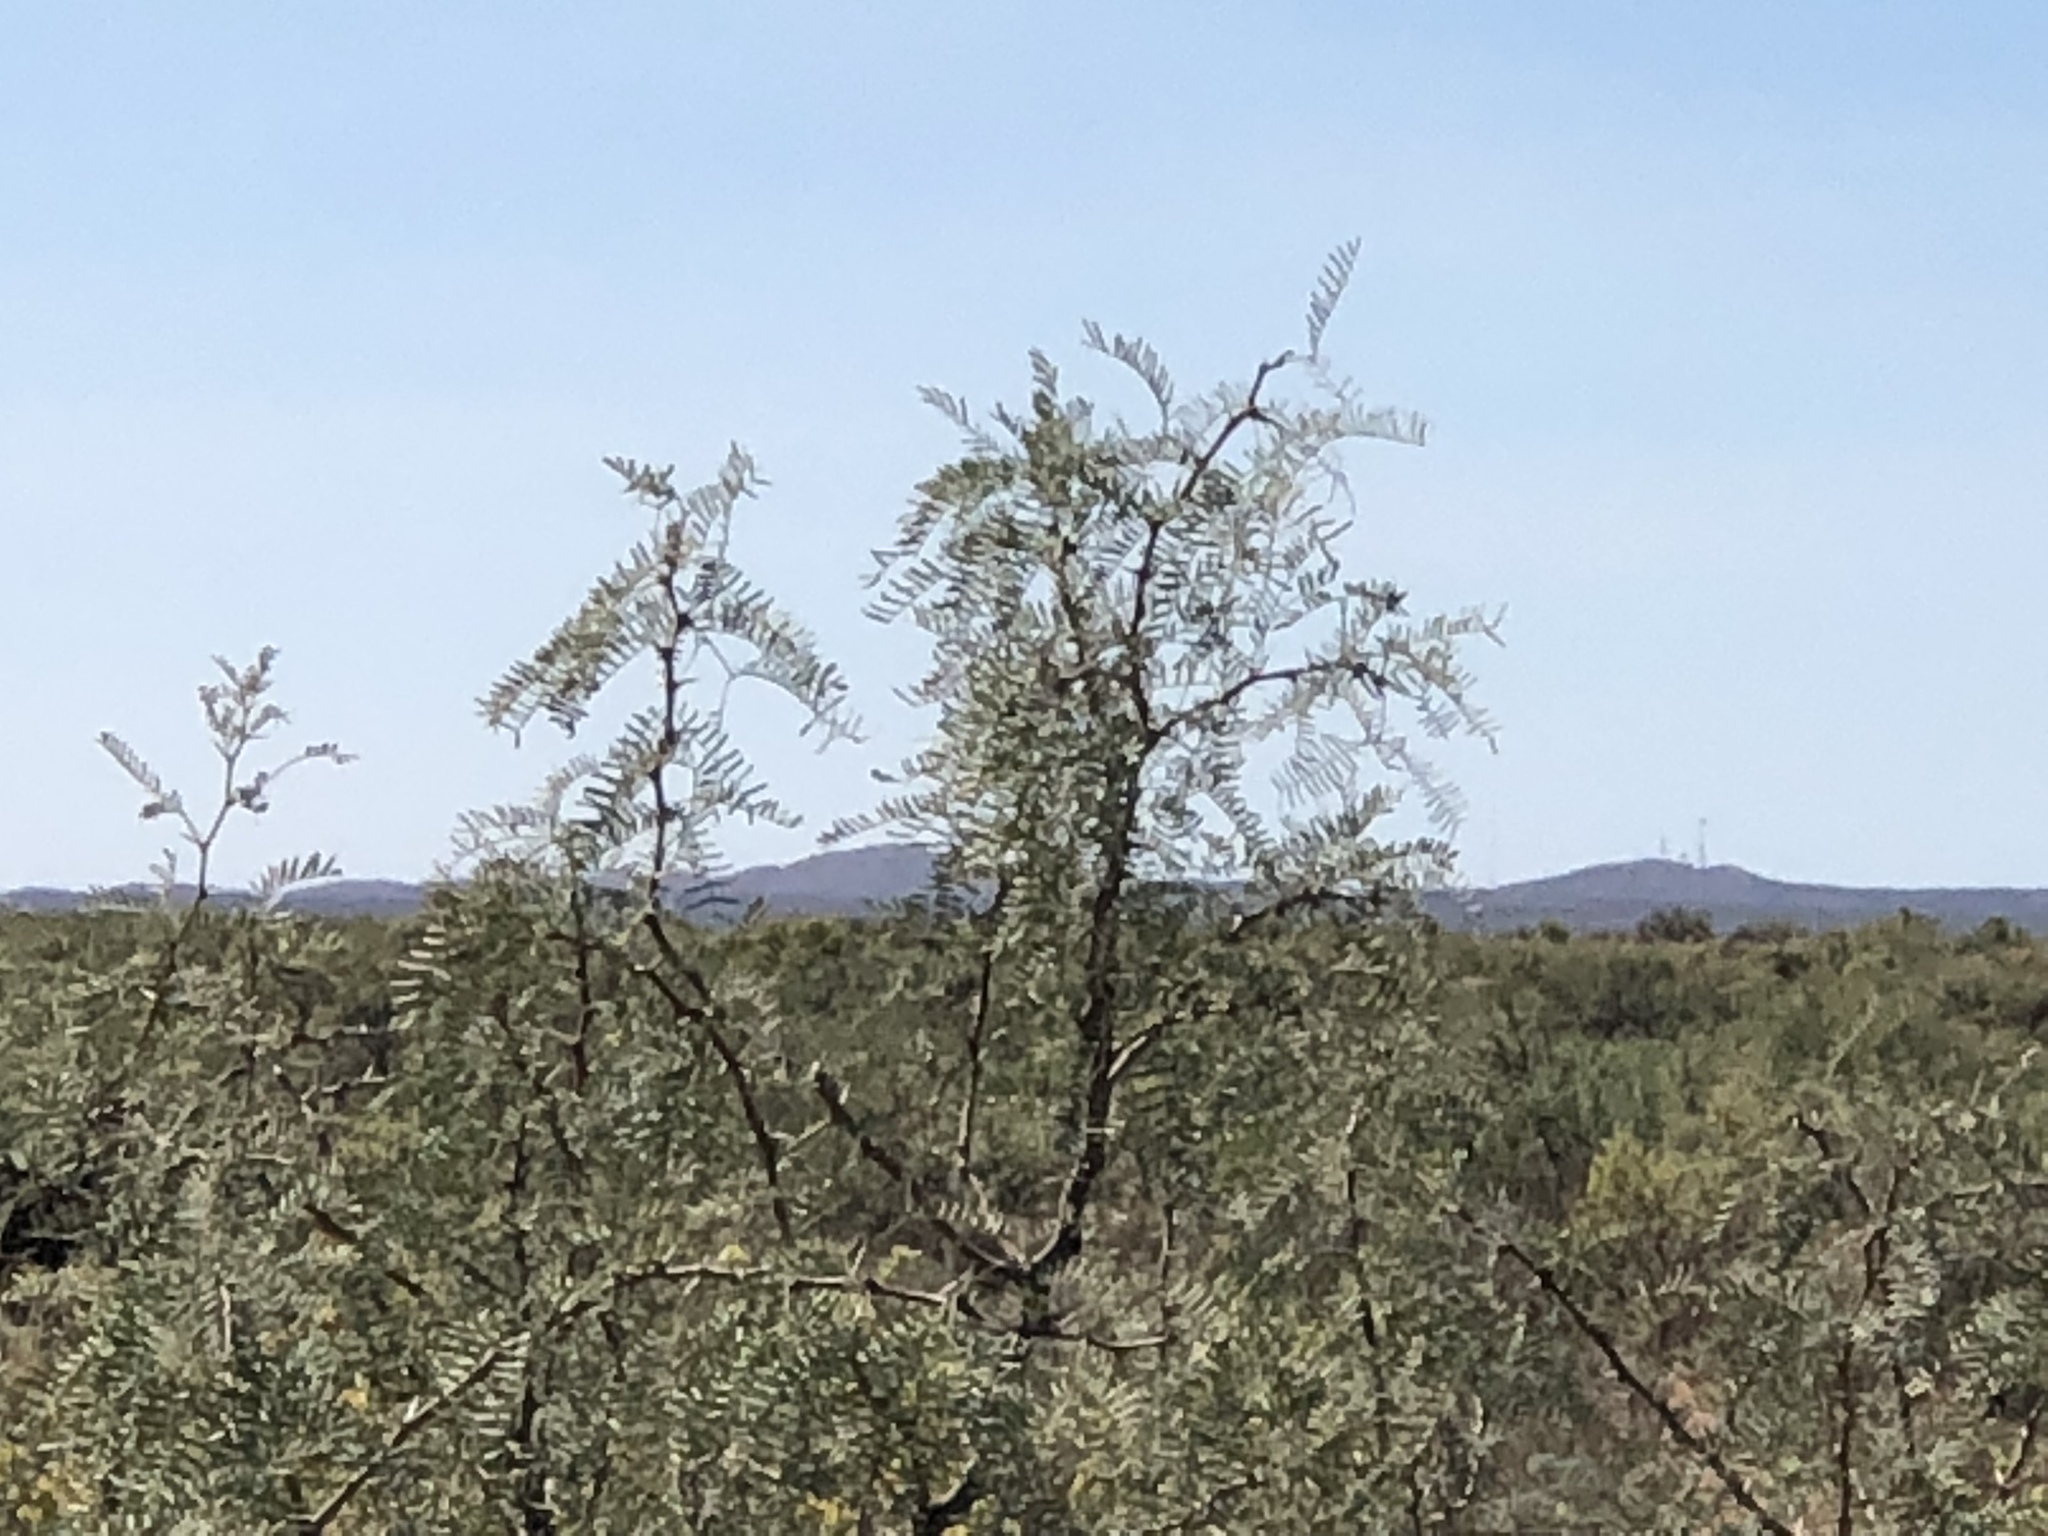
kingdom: Plantae
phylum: Tracheophyta
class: Magnoliopsida
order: Fabales
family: Fabaceae
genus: Prosopis
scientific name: Prosopis glandulosa
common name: Honey mesquite
